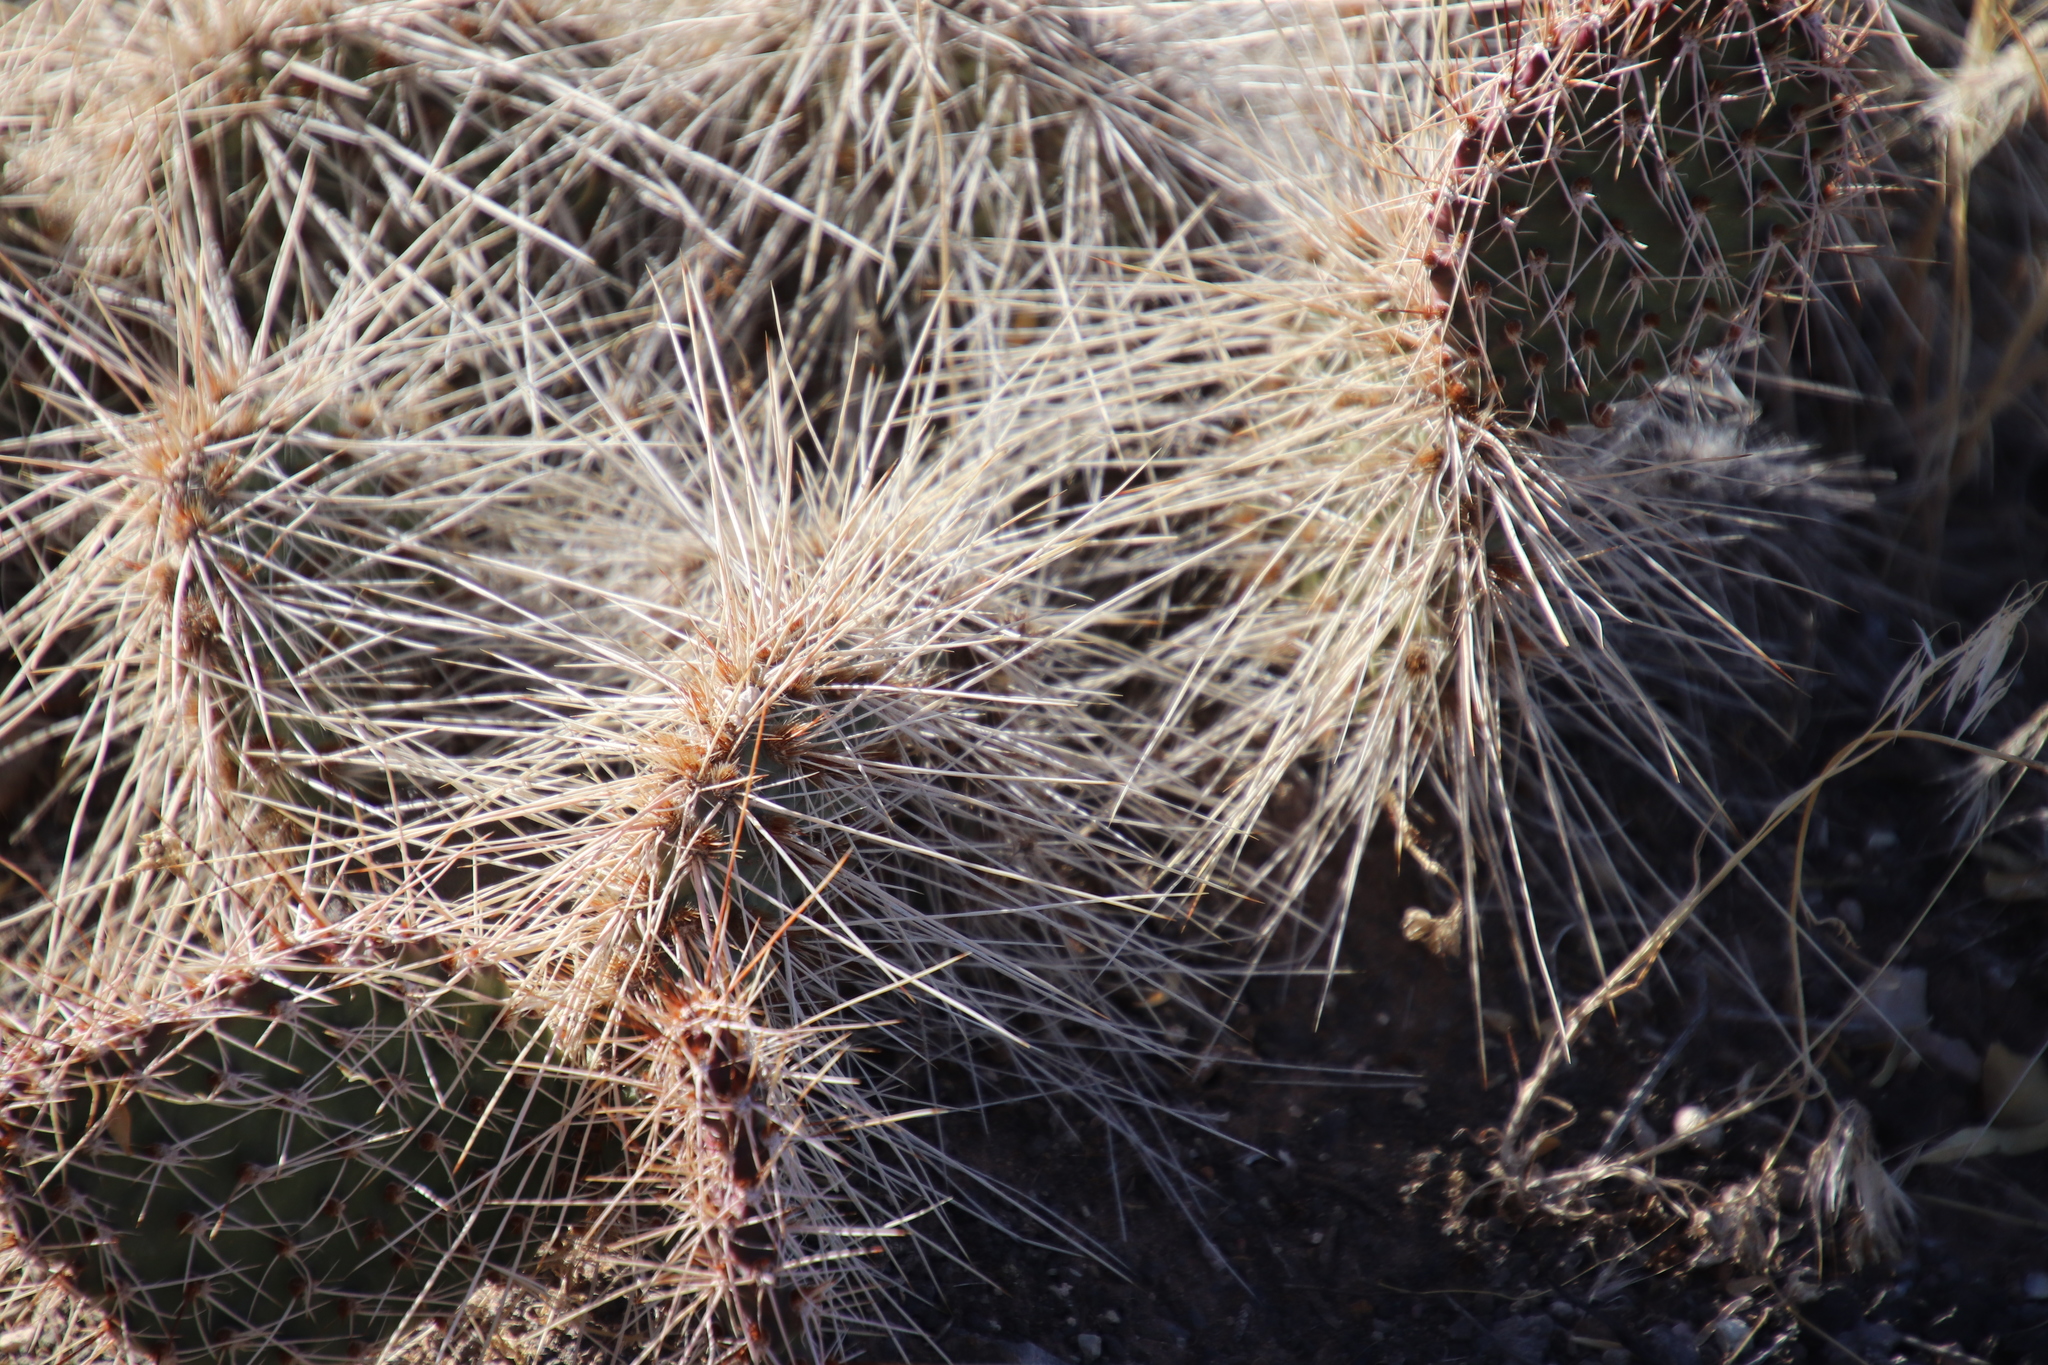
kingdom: Plantae
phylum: Tracheophyta
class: Magnoliopsida
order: Caryophyllales
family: Cactaceae
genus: Opuntia
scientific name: Opuntia polyacantha
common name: Plains prickly-pear
